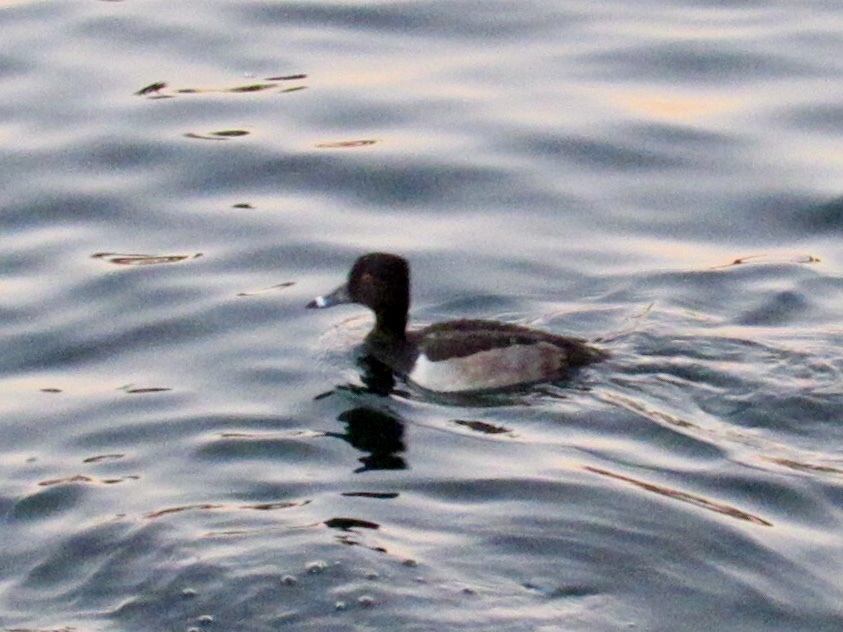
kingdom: Animalia
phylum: Chordata
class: Aves
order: Anseriformes
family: Anatidae
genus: Aythya
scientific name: Aythya collaris
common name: Ring-necked duck
